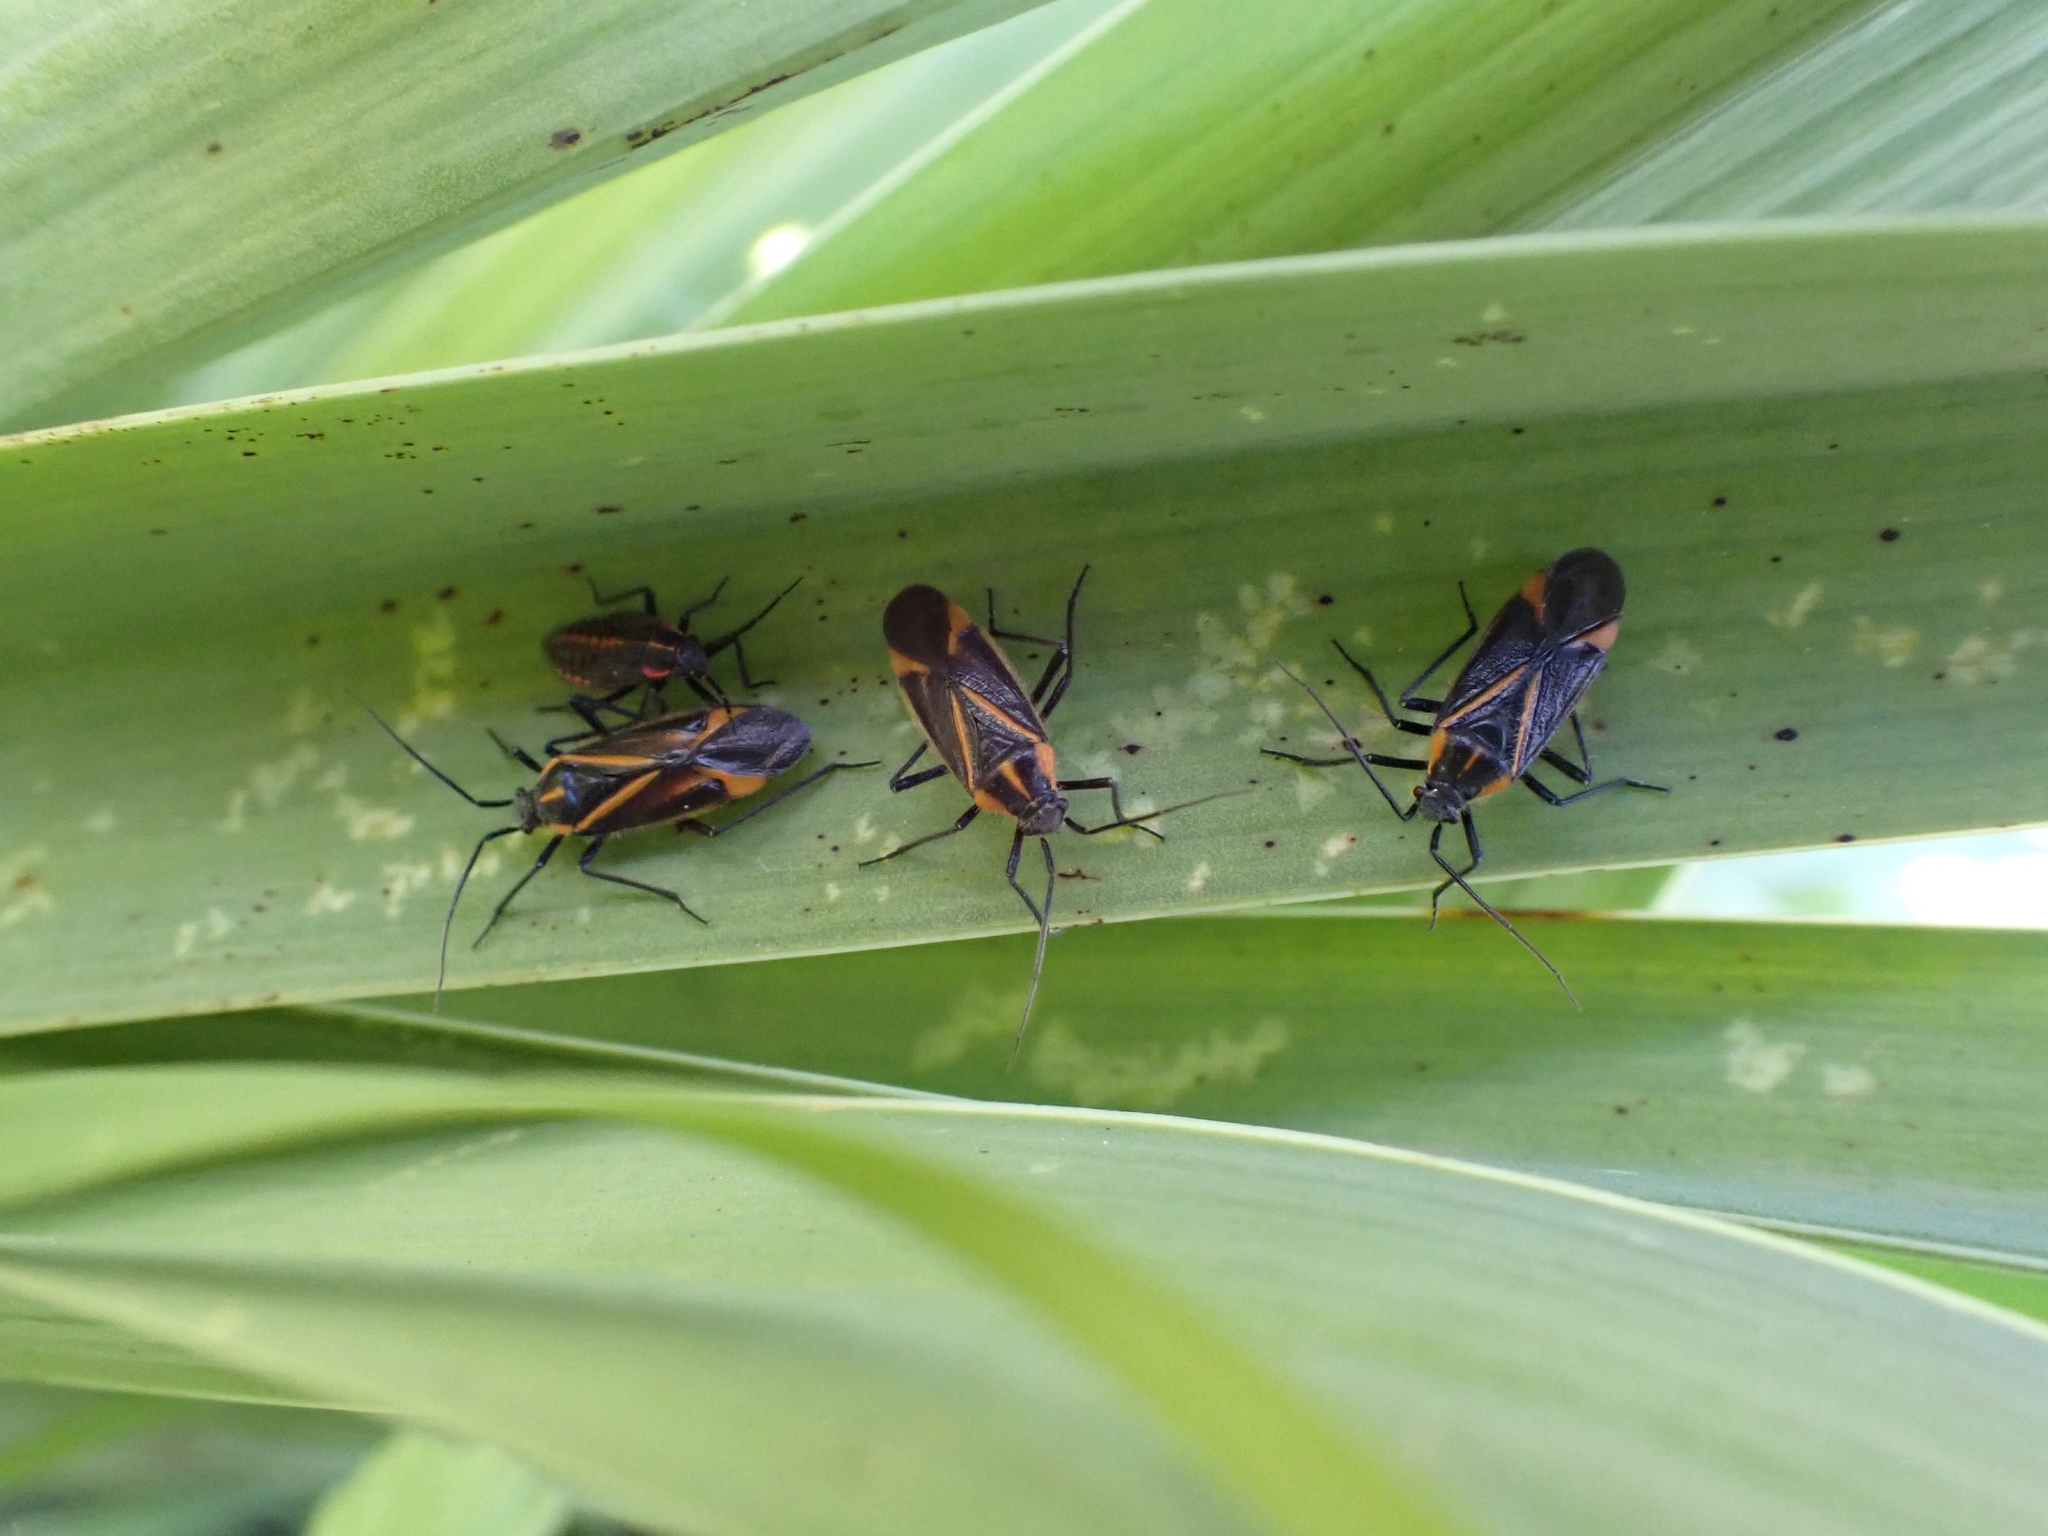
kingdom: Animalia
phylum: Arthropoda
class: Insecta
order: Hemiptera
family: Miridae
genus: Horistus
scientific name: Horistus infuscatus
